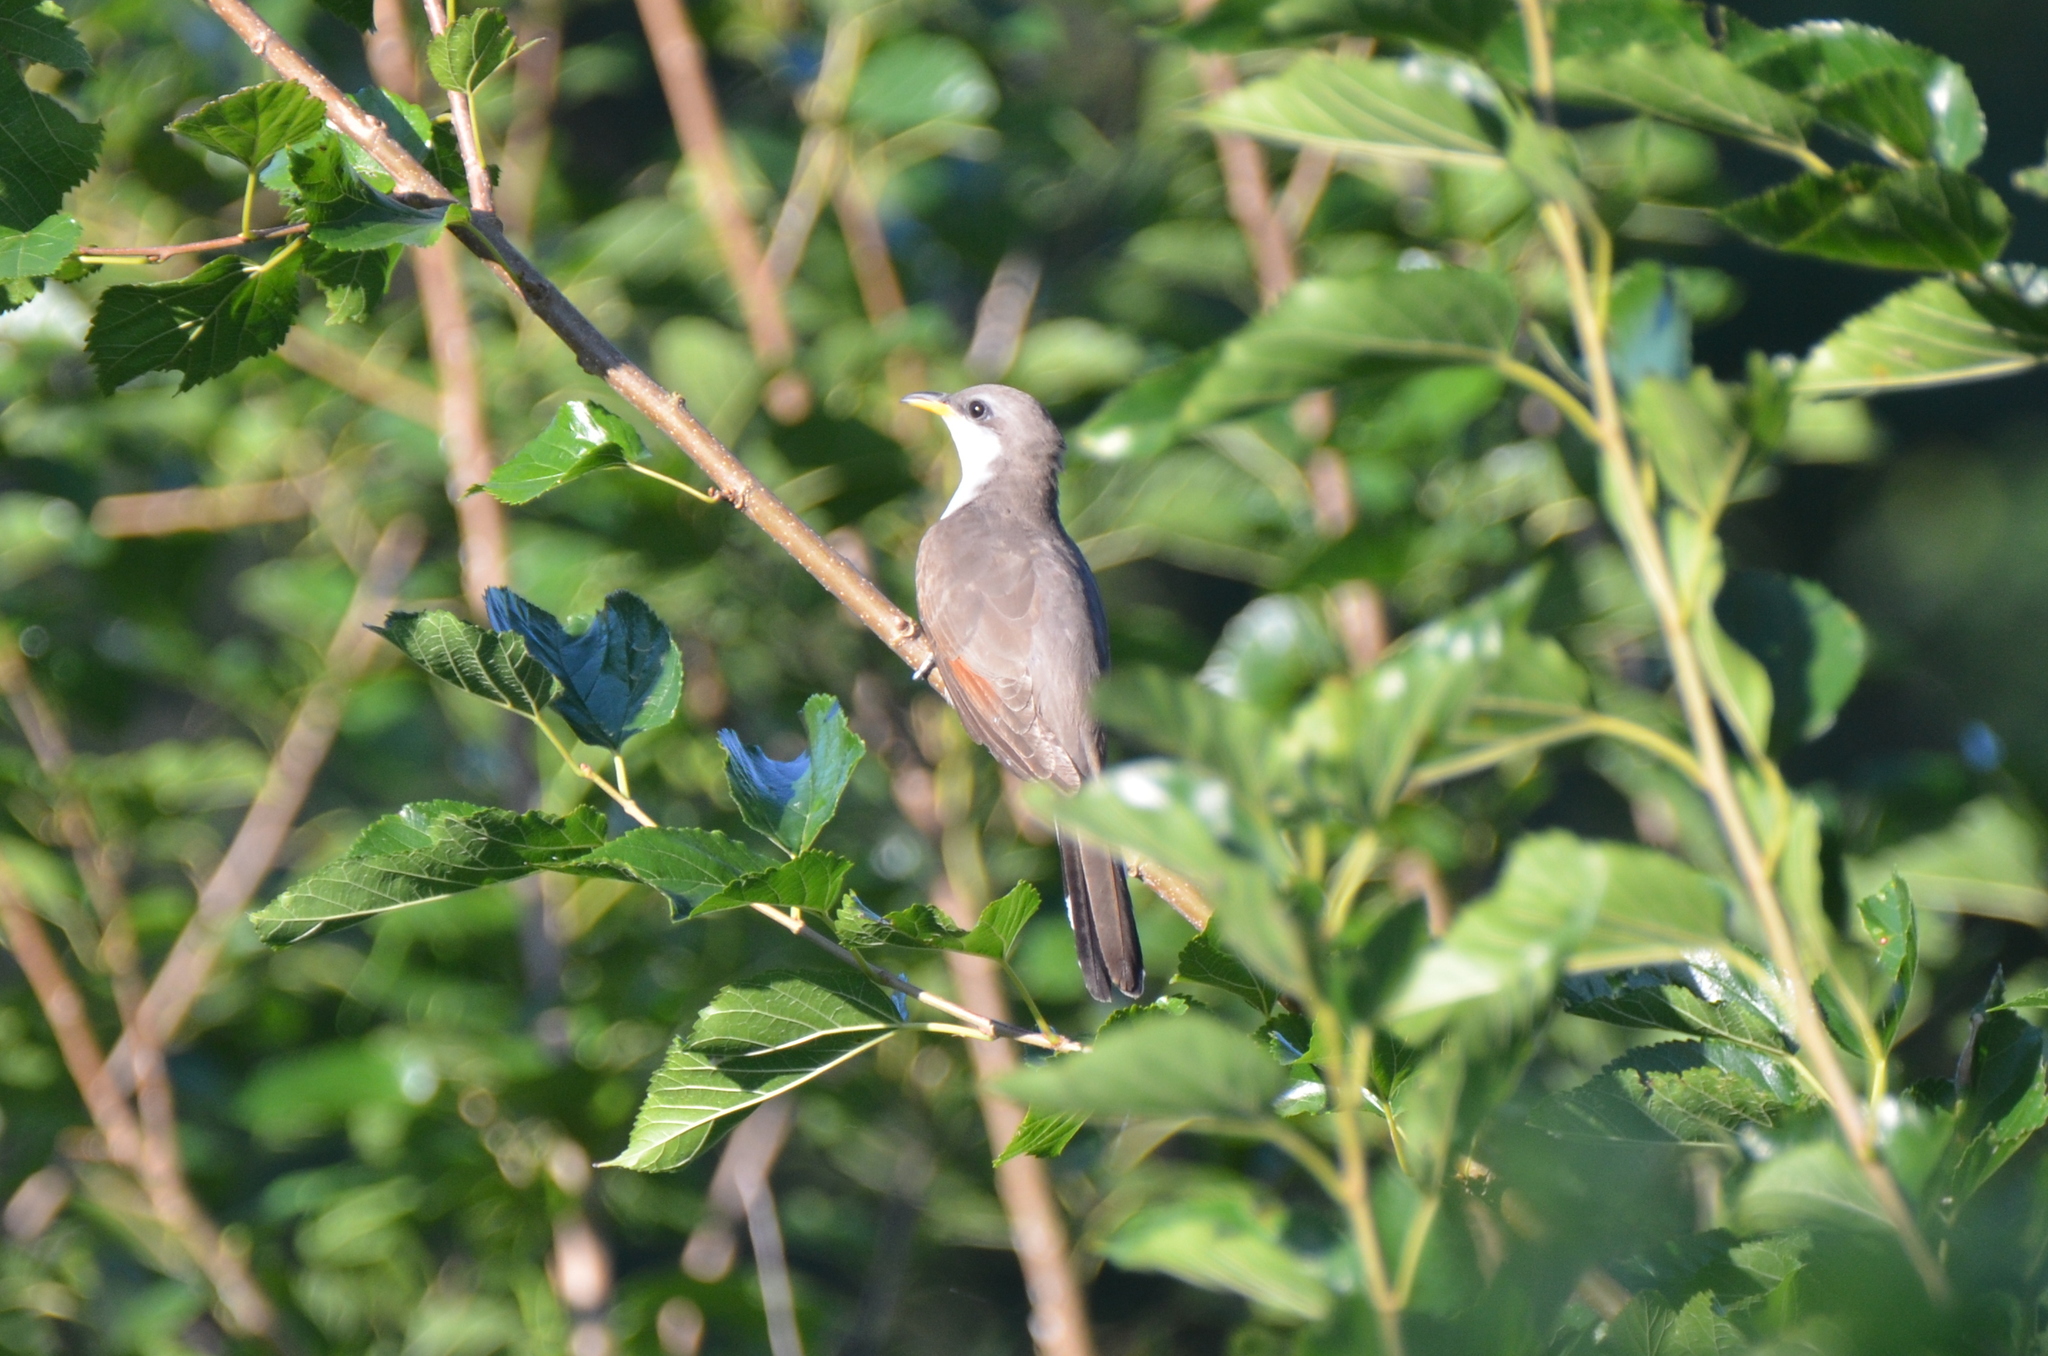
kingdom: Animalia
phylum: Chordata
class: Aves
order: Cuculiformes
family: Cuculidae
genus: Coccyzus
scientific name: Coccyzus americanus
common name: Yellow-billed cuckoo
